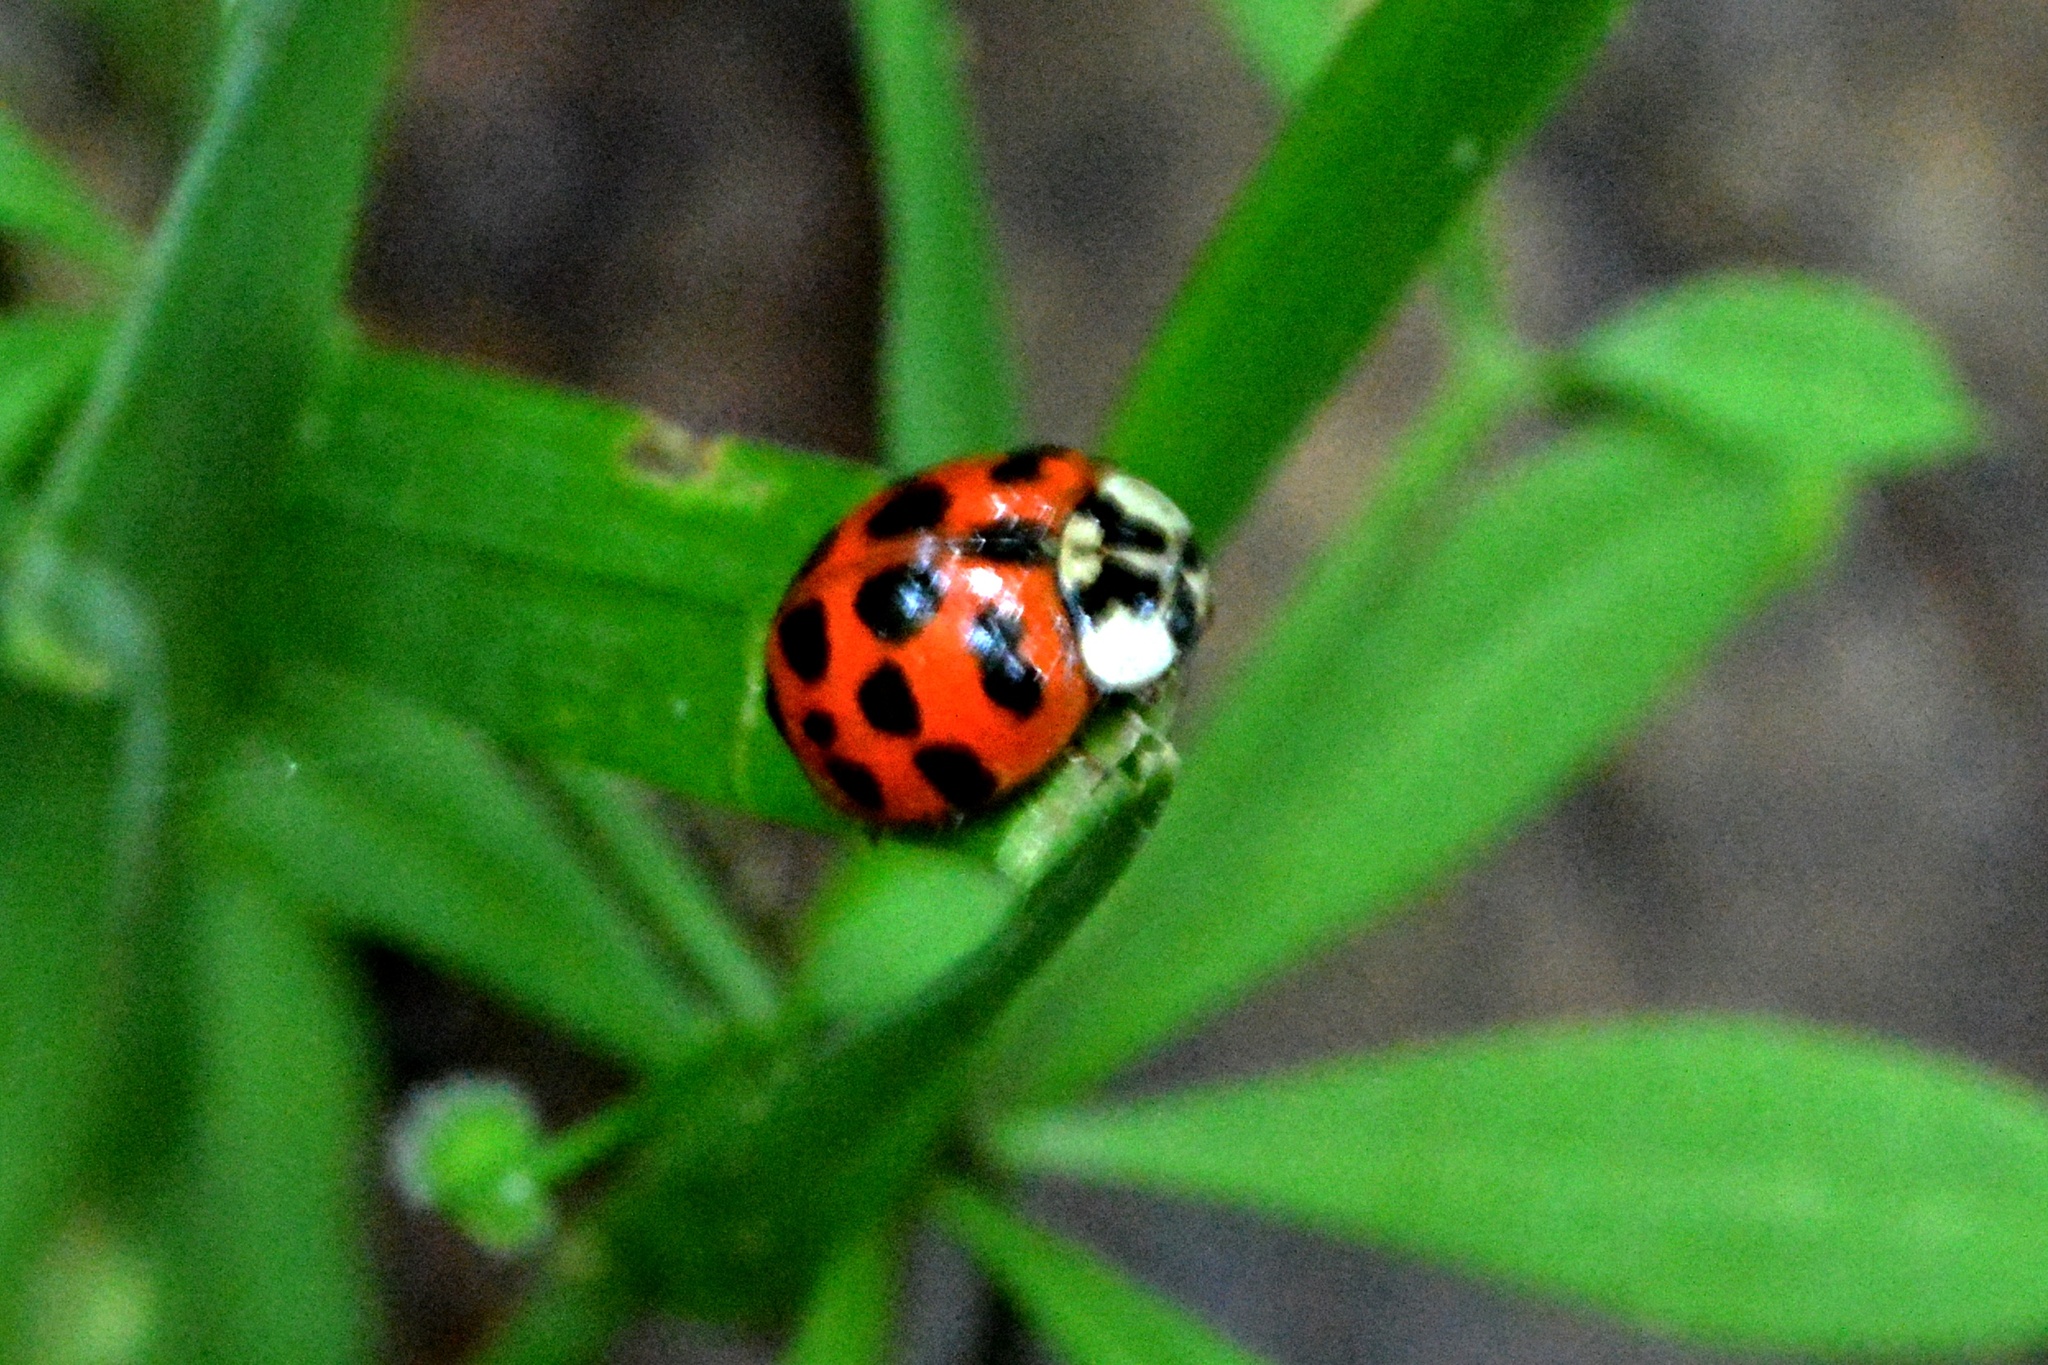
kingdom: Animalia
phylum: Arthropoda
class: Insecta
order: Coleoptera
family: Coccinellidae
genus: Harmonia
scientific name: Harmonia axyridis
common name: Harlequin ladybird
